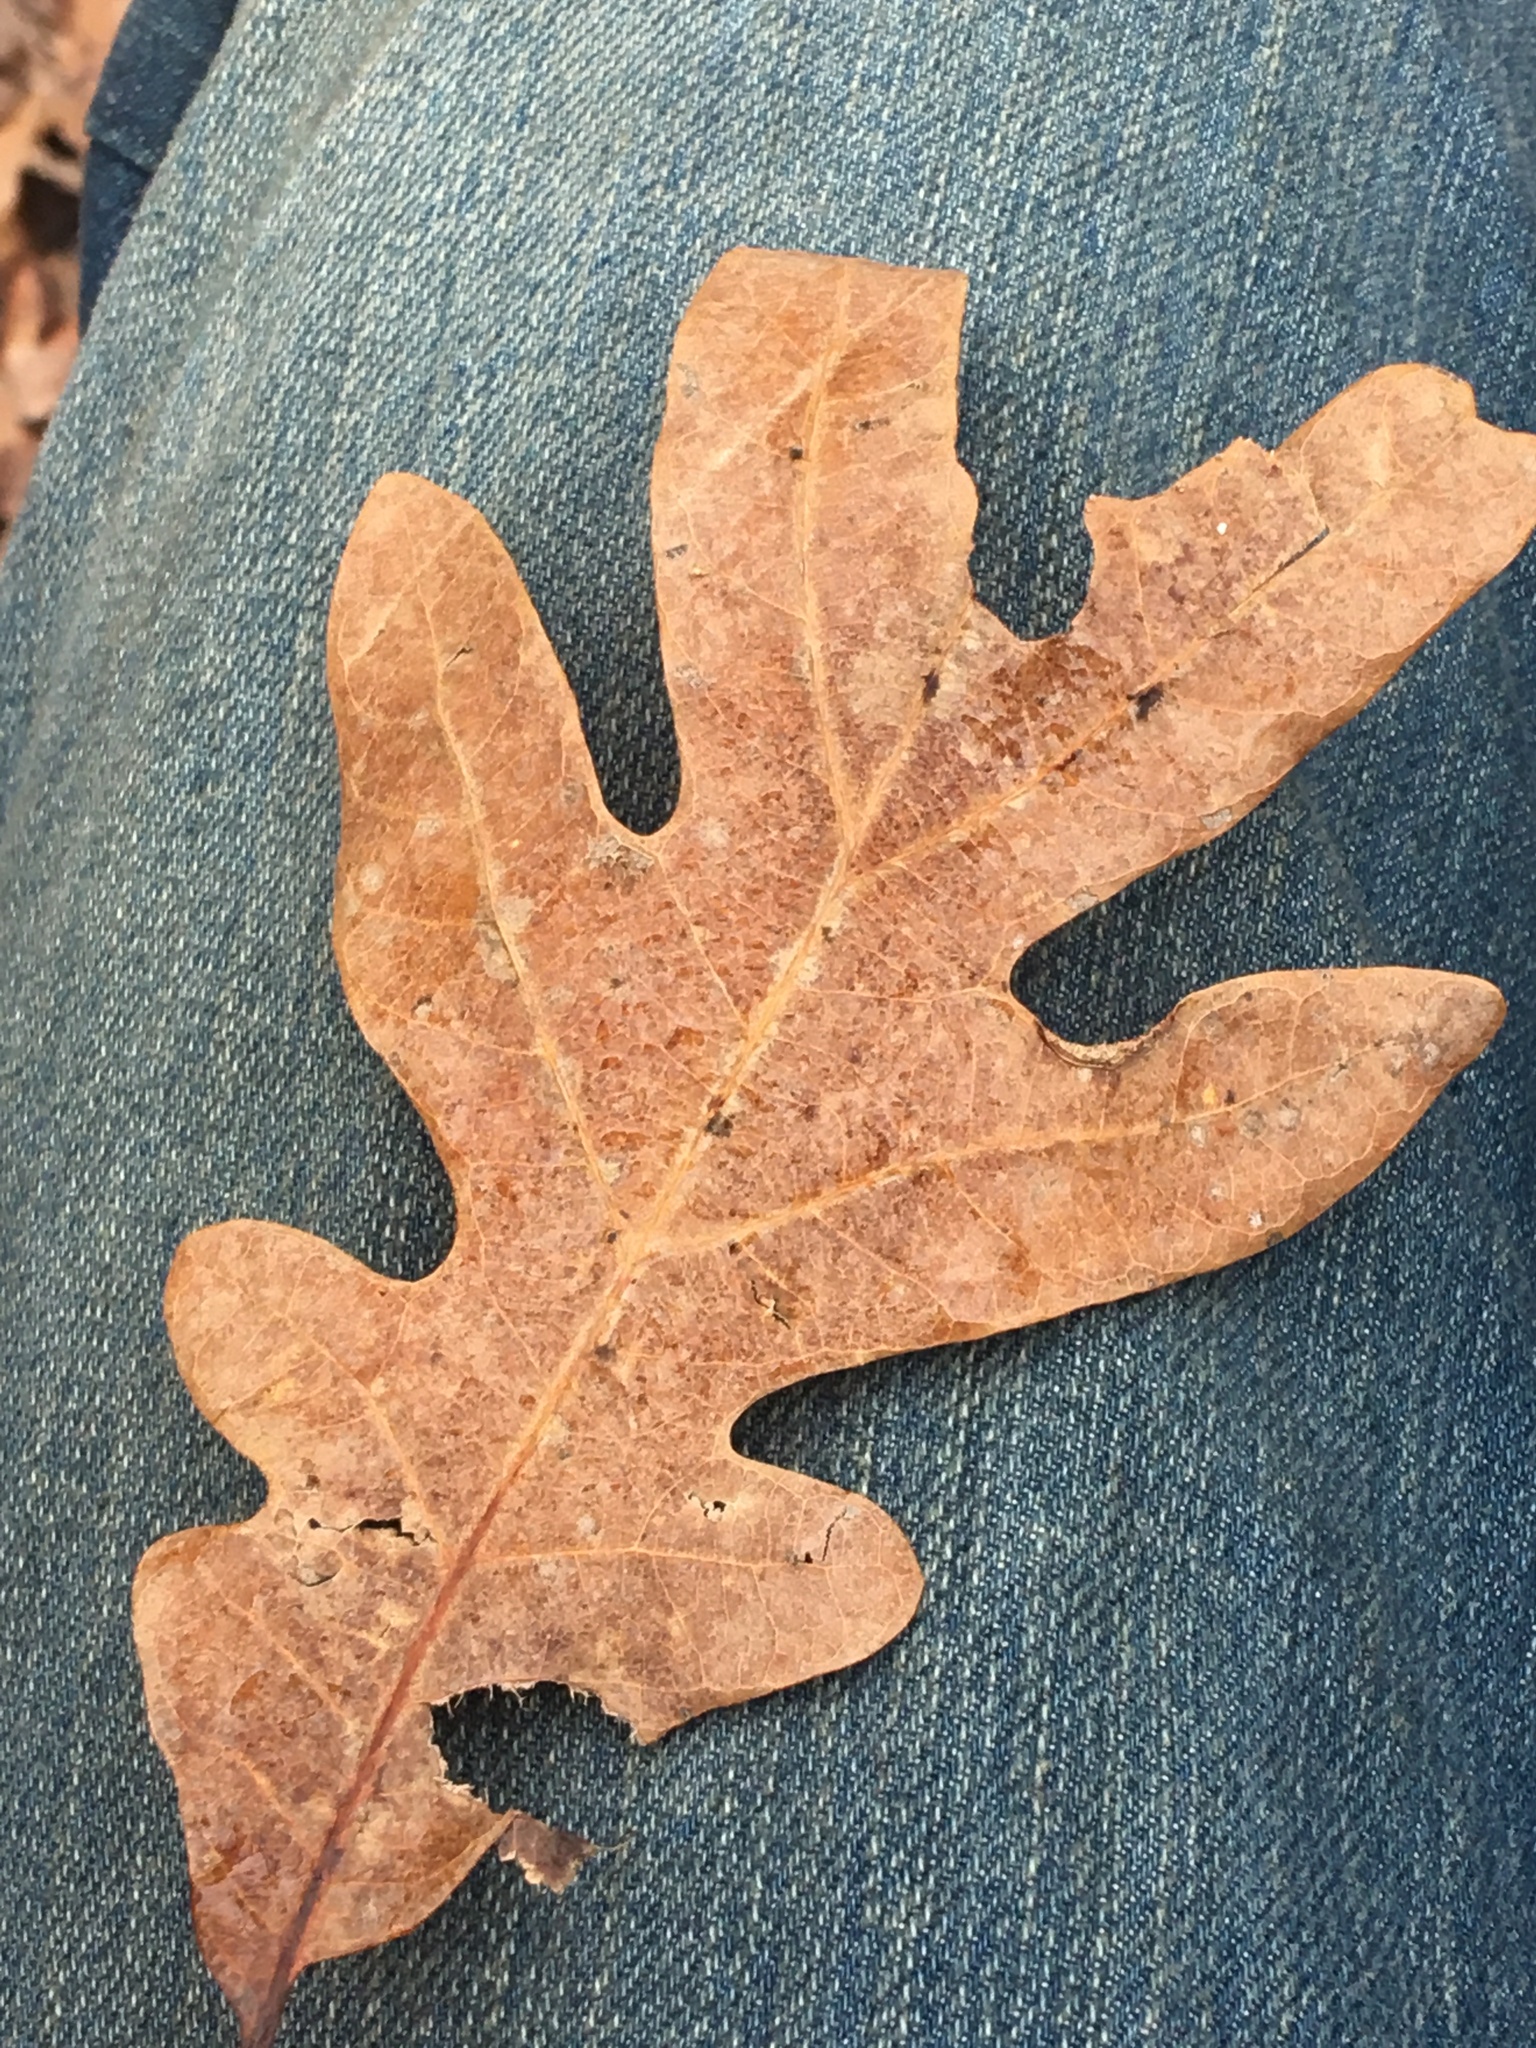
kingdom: Plantae
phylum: Tracheophyta
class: Magnoliopsida
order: Fagales
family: Fagaceae
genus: Quercus
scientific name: Quercus alba
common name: White oak
